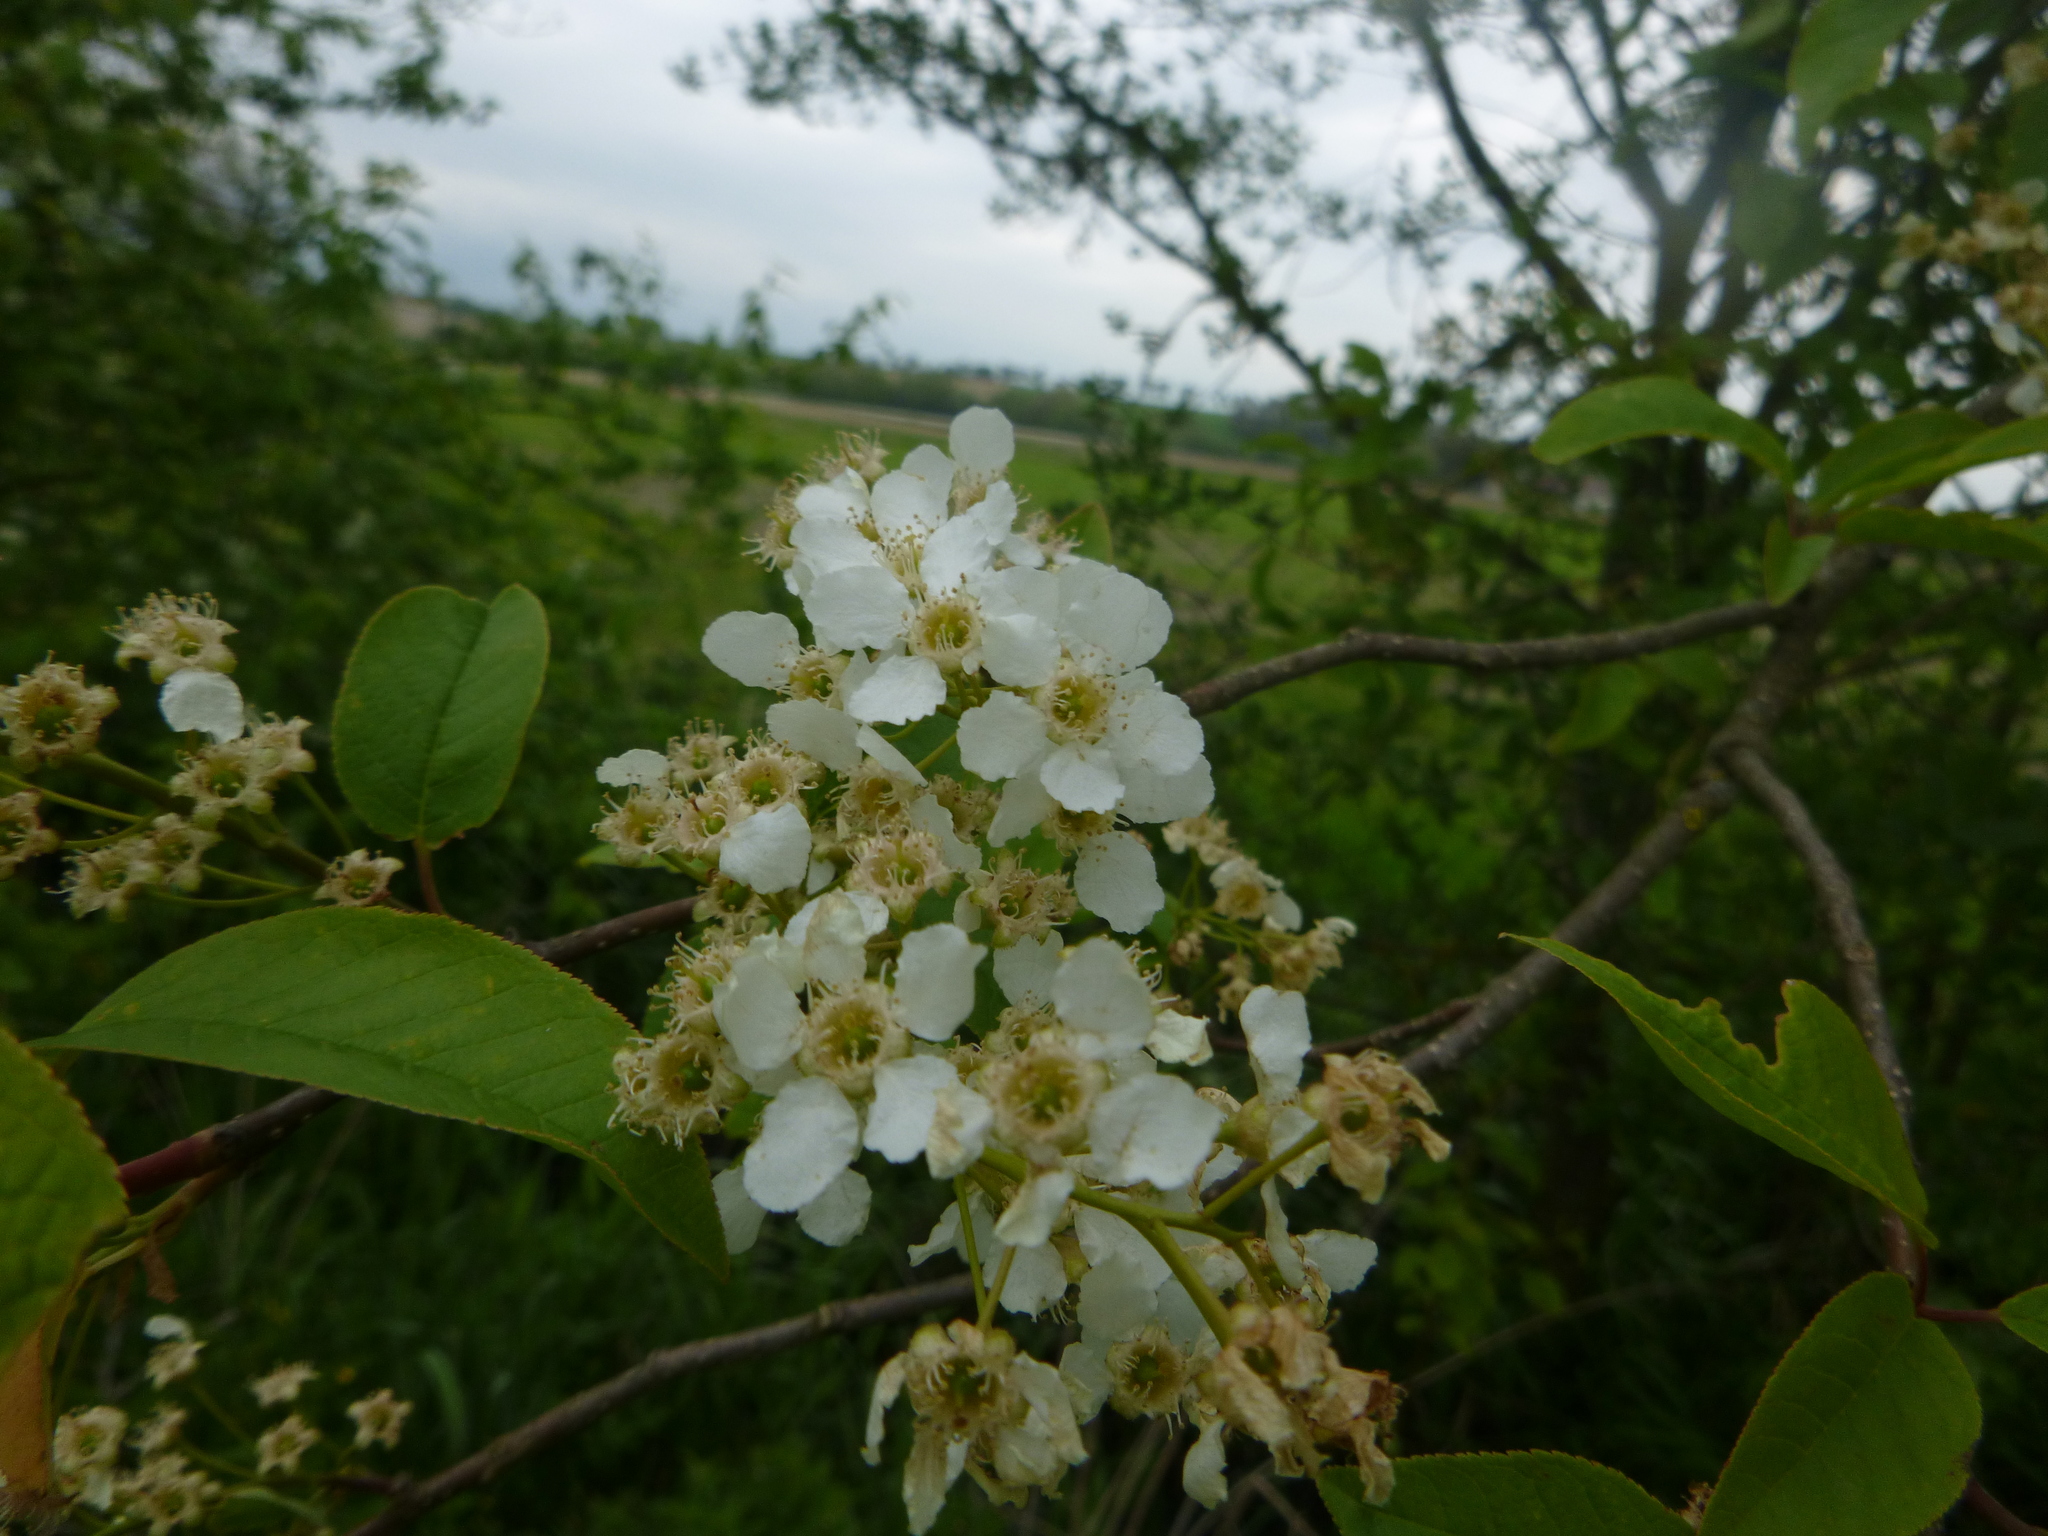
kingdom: Plantae
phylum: Tracheophyta
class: Magnoliopsida
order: Rosales
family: Rosaceae
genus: Prunus
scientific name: Prunus padus
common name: Bird cherry
